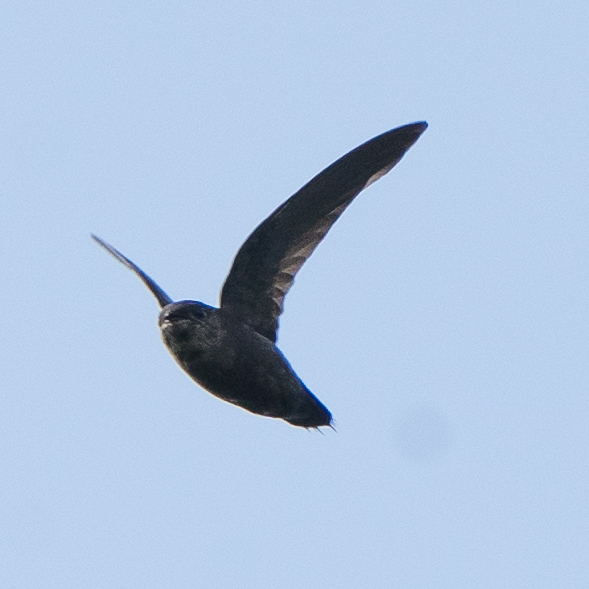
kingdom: Animalia
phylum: Chordata
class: Aves
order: Apodiformes
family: Apodidae
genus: Chaetura
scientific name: Chaetura spinicaudus
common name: Band-rumped swift
